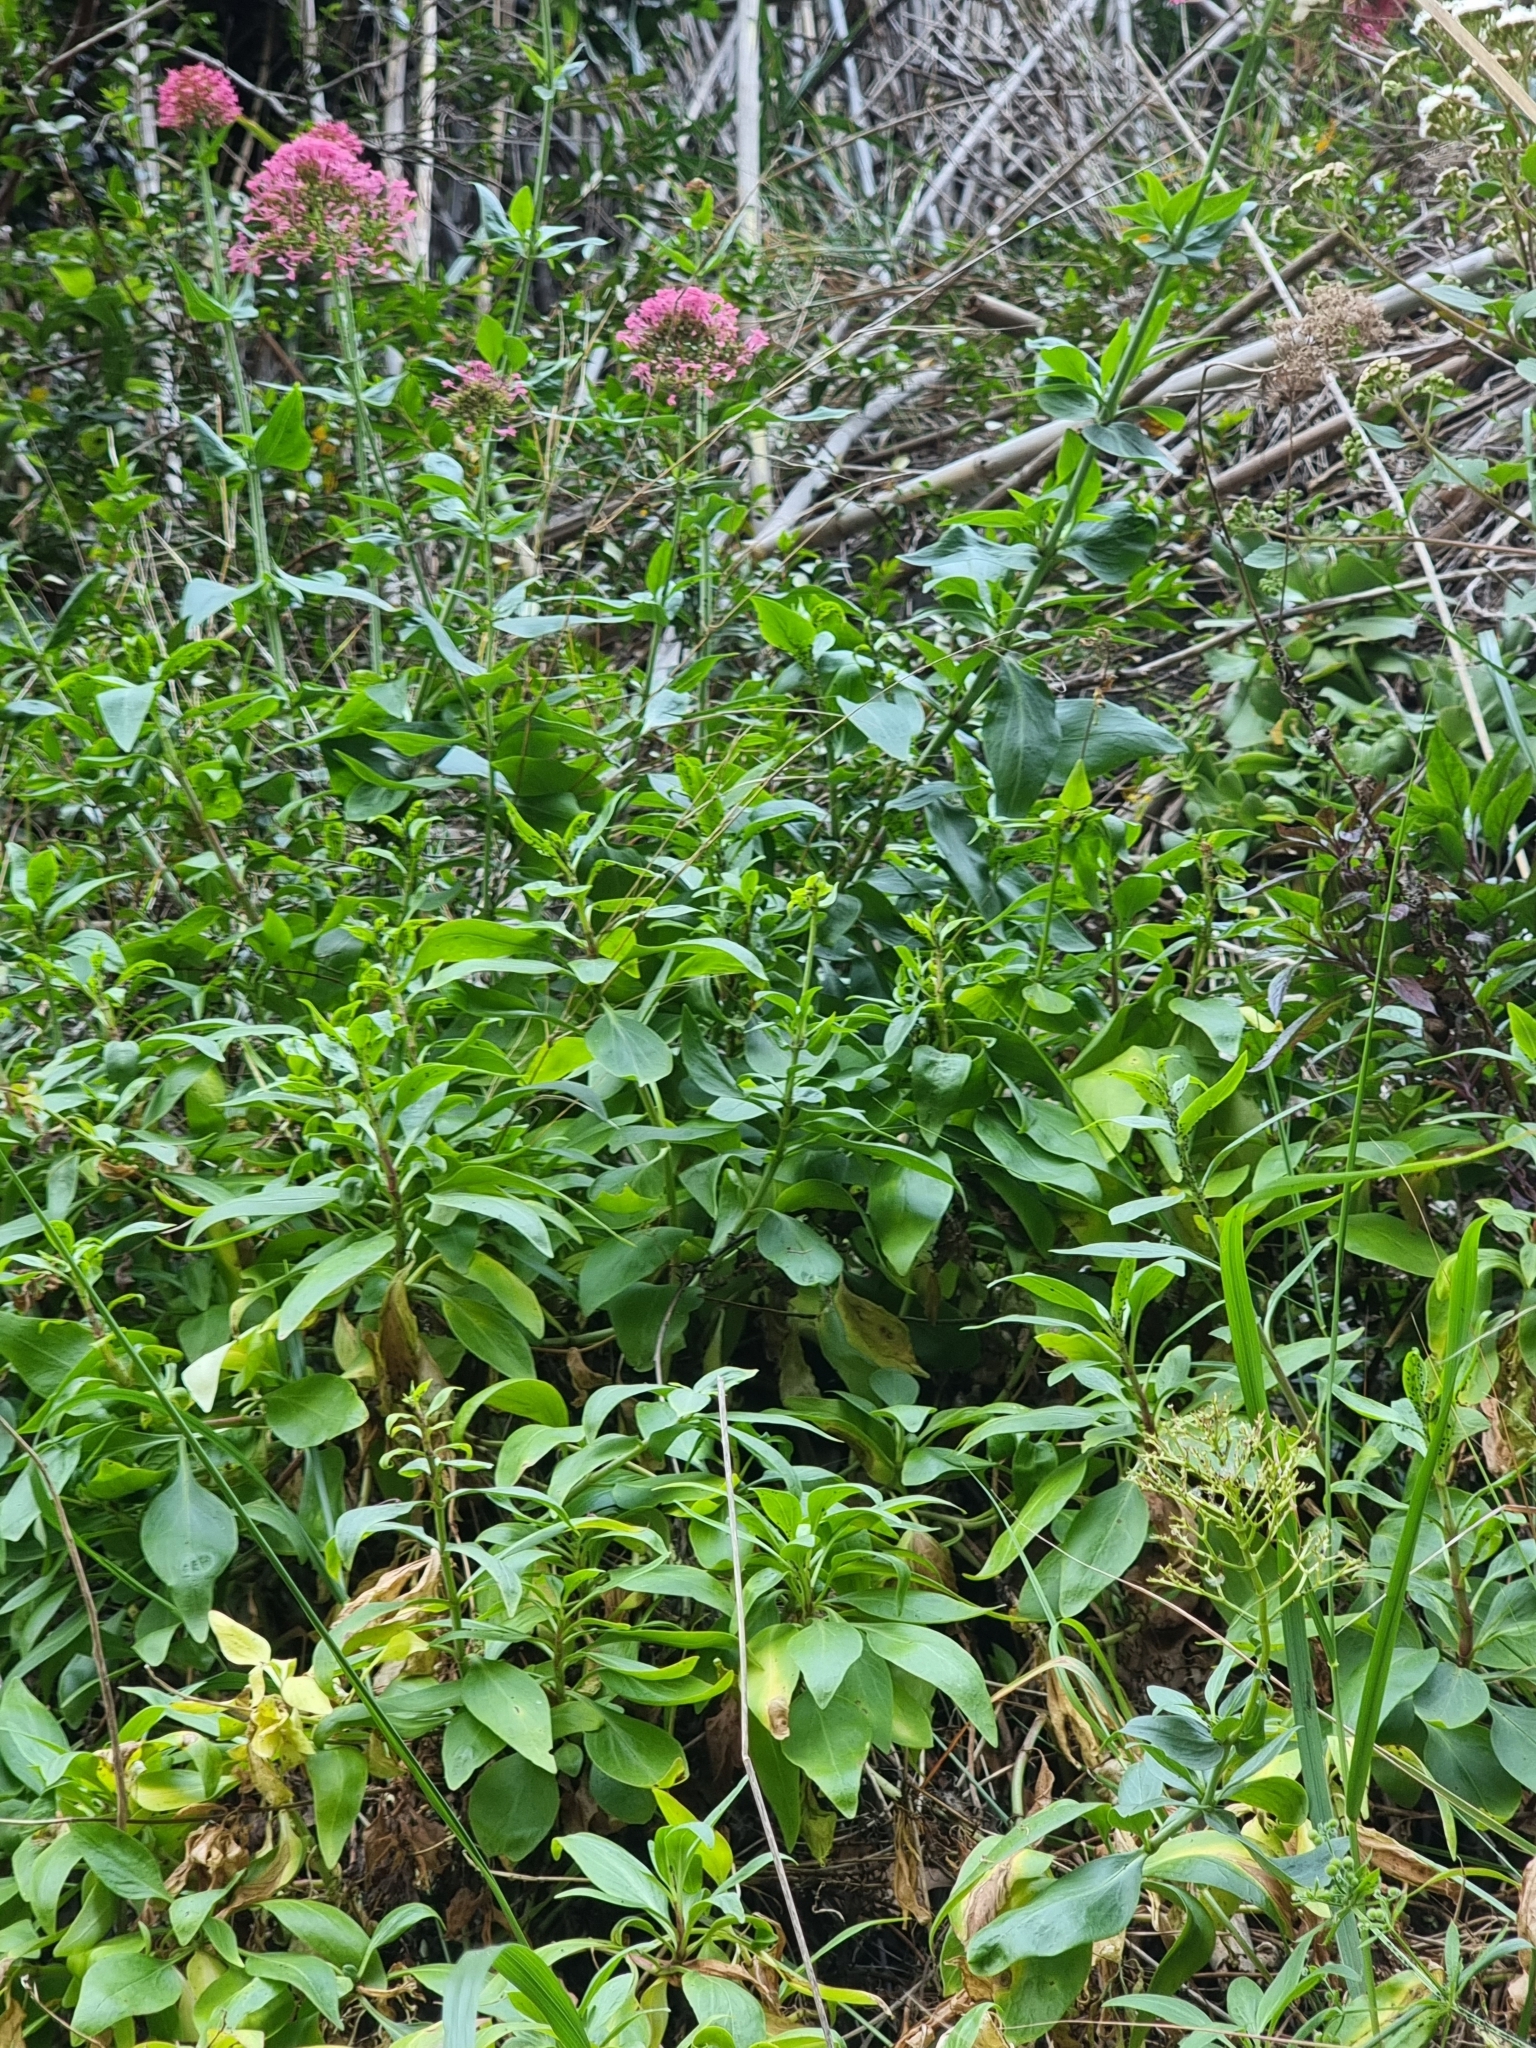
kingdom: Plantae
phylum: Tracheophyta
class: Magnoliopsida
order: Dipsacales
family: Caprifoliaceae
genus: Centranthus
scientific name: Centranthus ruber
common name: Red valerian
